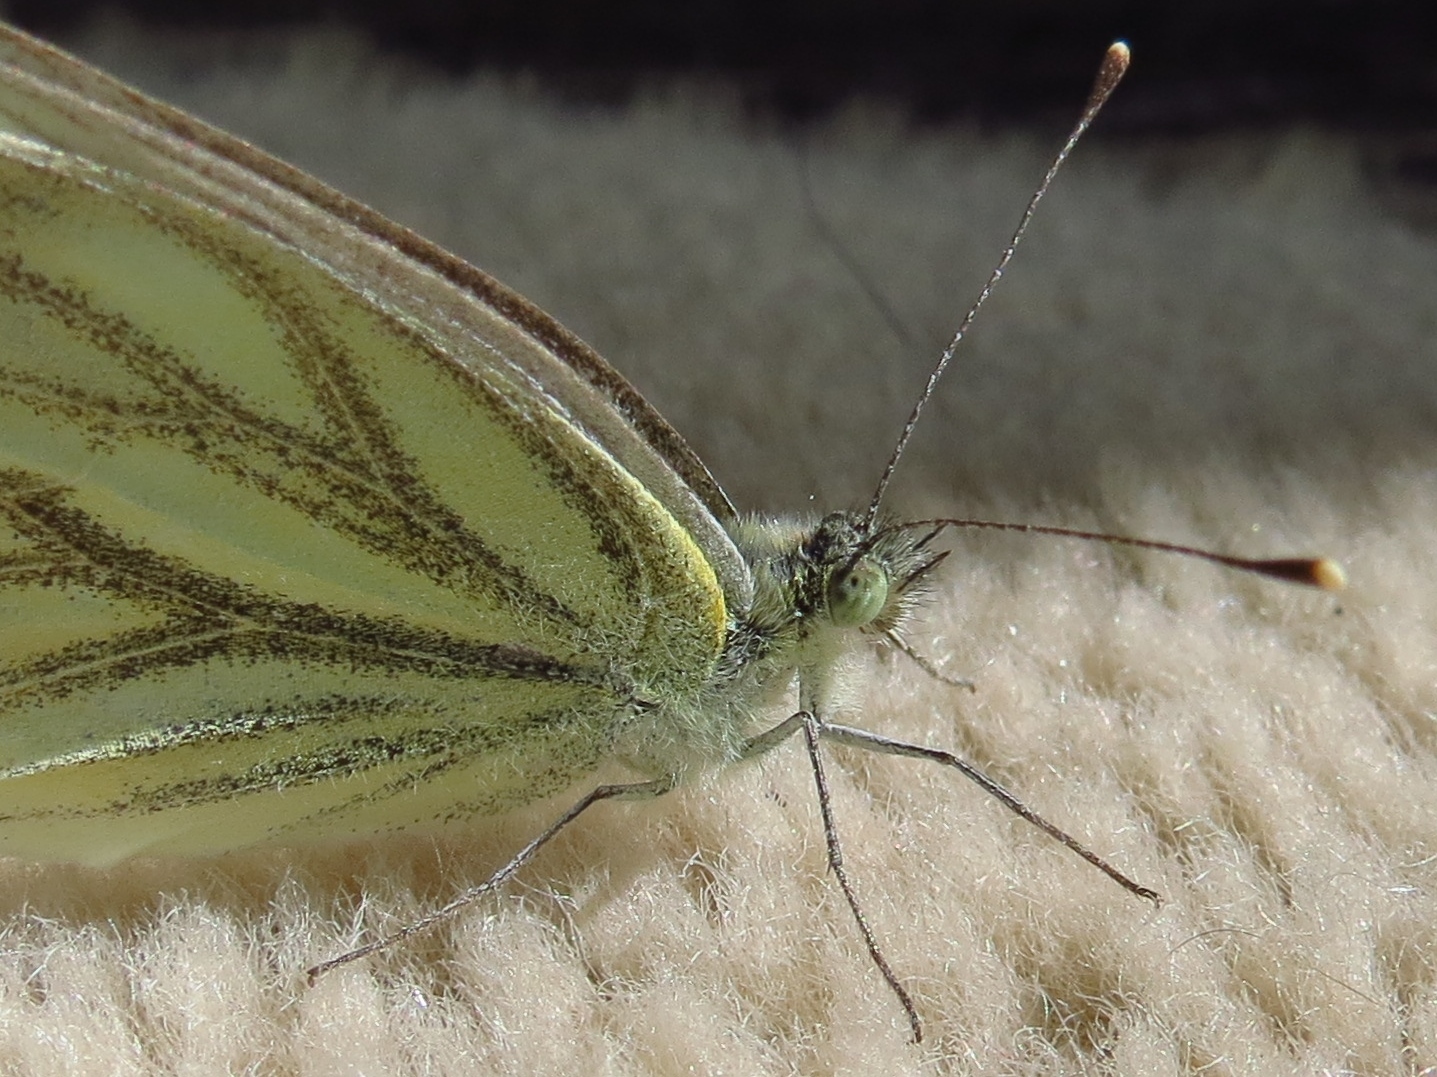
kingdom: Animalia
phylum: Arthropoda
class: Insecta
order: Lepidoptera
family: Pieridae
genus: Pieris
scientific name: Pieris napi
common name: Green-veined white
